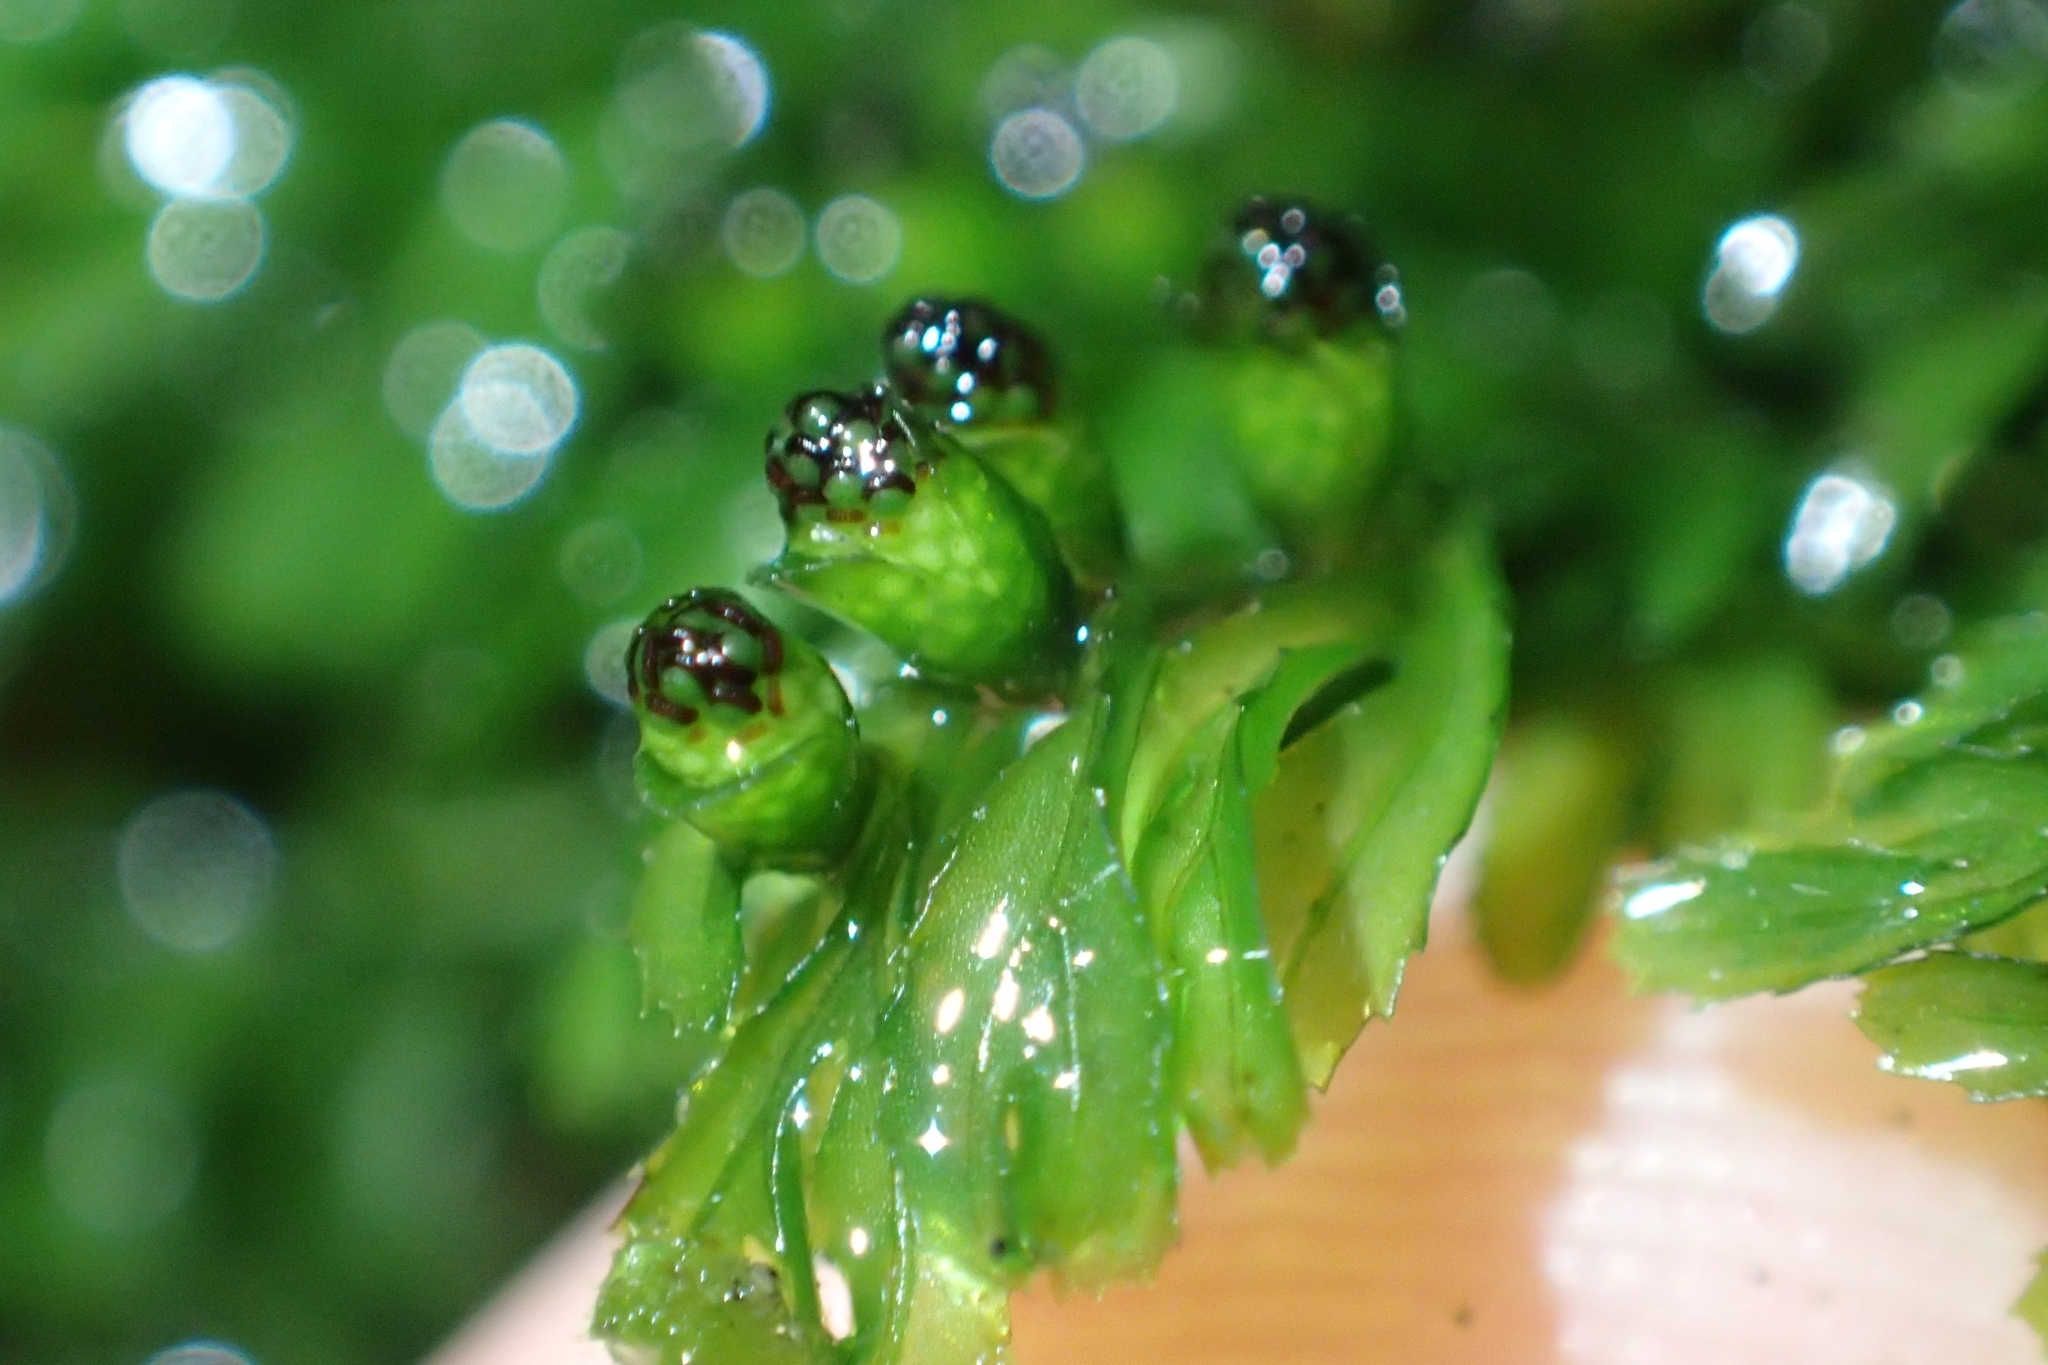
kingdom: Plantae
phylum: Tracheophyta
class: Polypodiopsida
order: Hymenophyllales
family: Hymenophyllaceae
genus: Hymenophyllum
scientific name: Hymenophyllum cupressiforme
